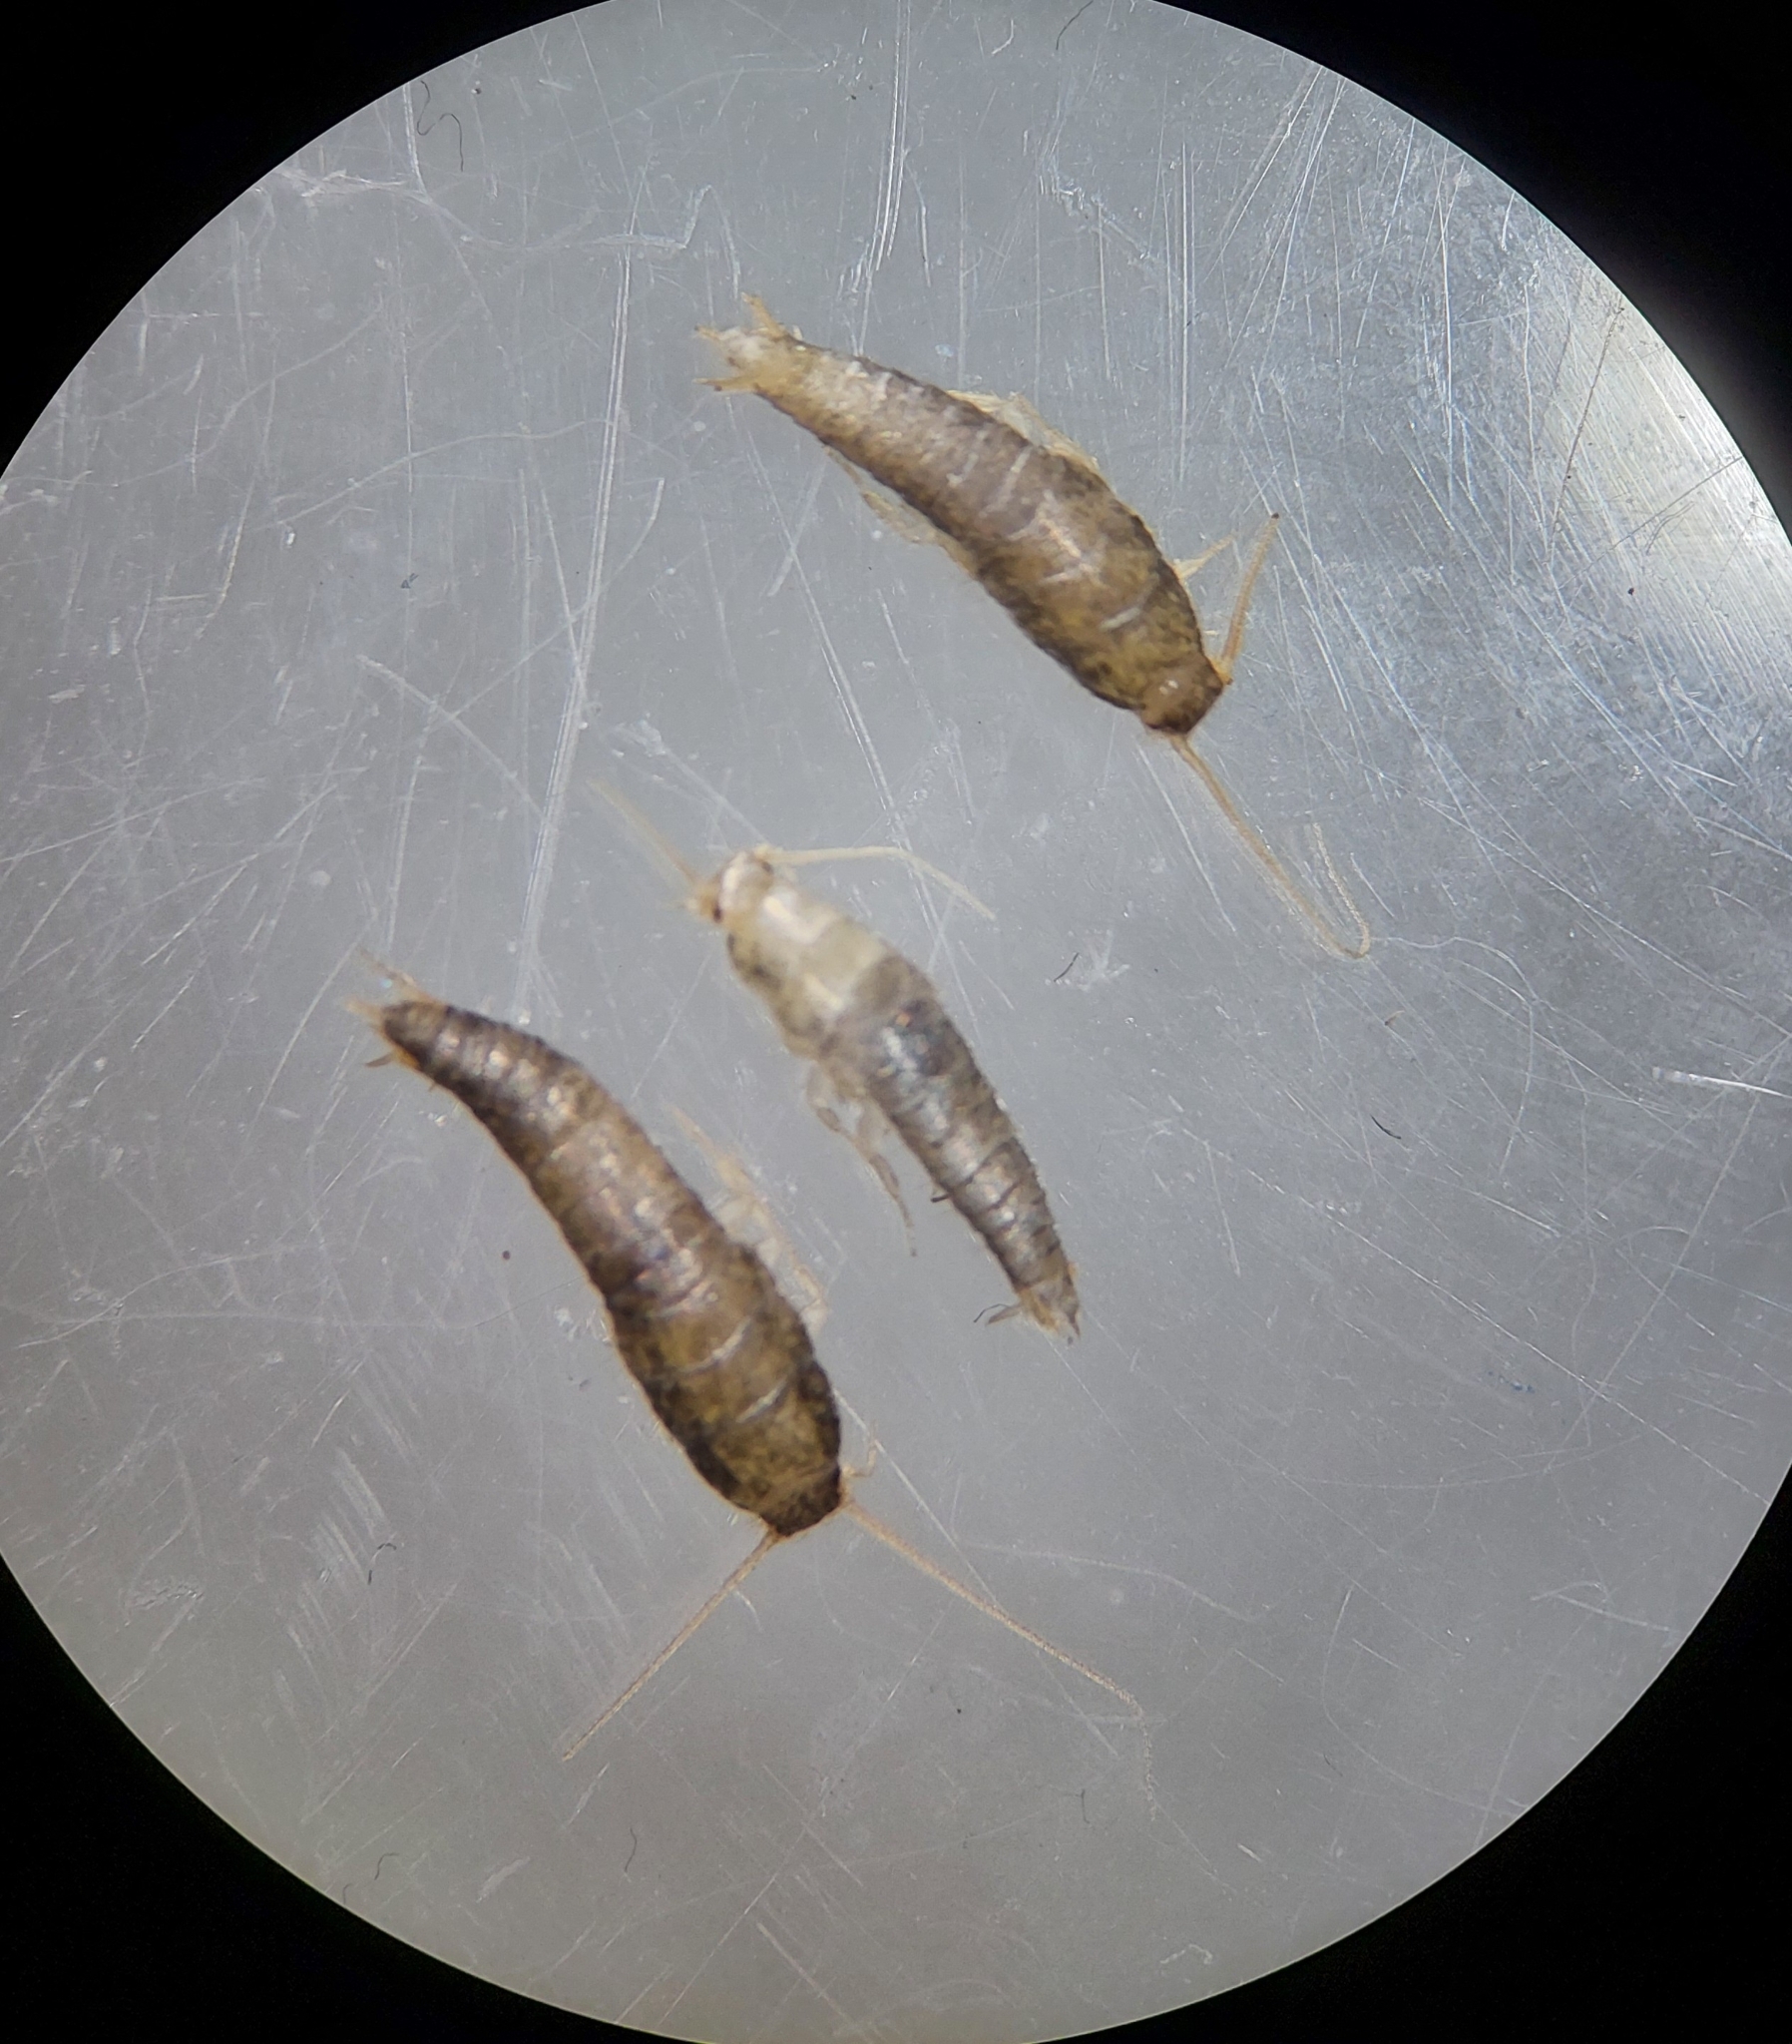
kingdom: Animalia
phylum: Arthropoda
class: Insecta
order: Zygentoma
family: Lepismatidae
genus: Lepisma
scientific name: Lepisma saccharinum
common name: Silverfish
